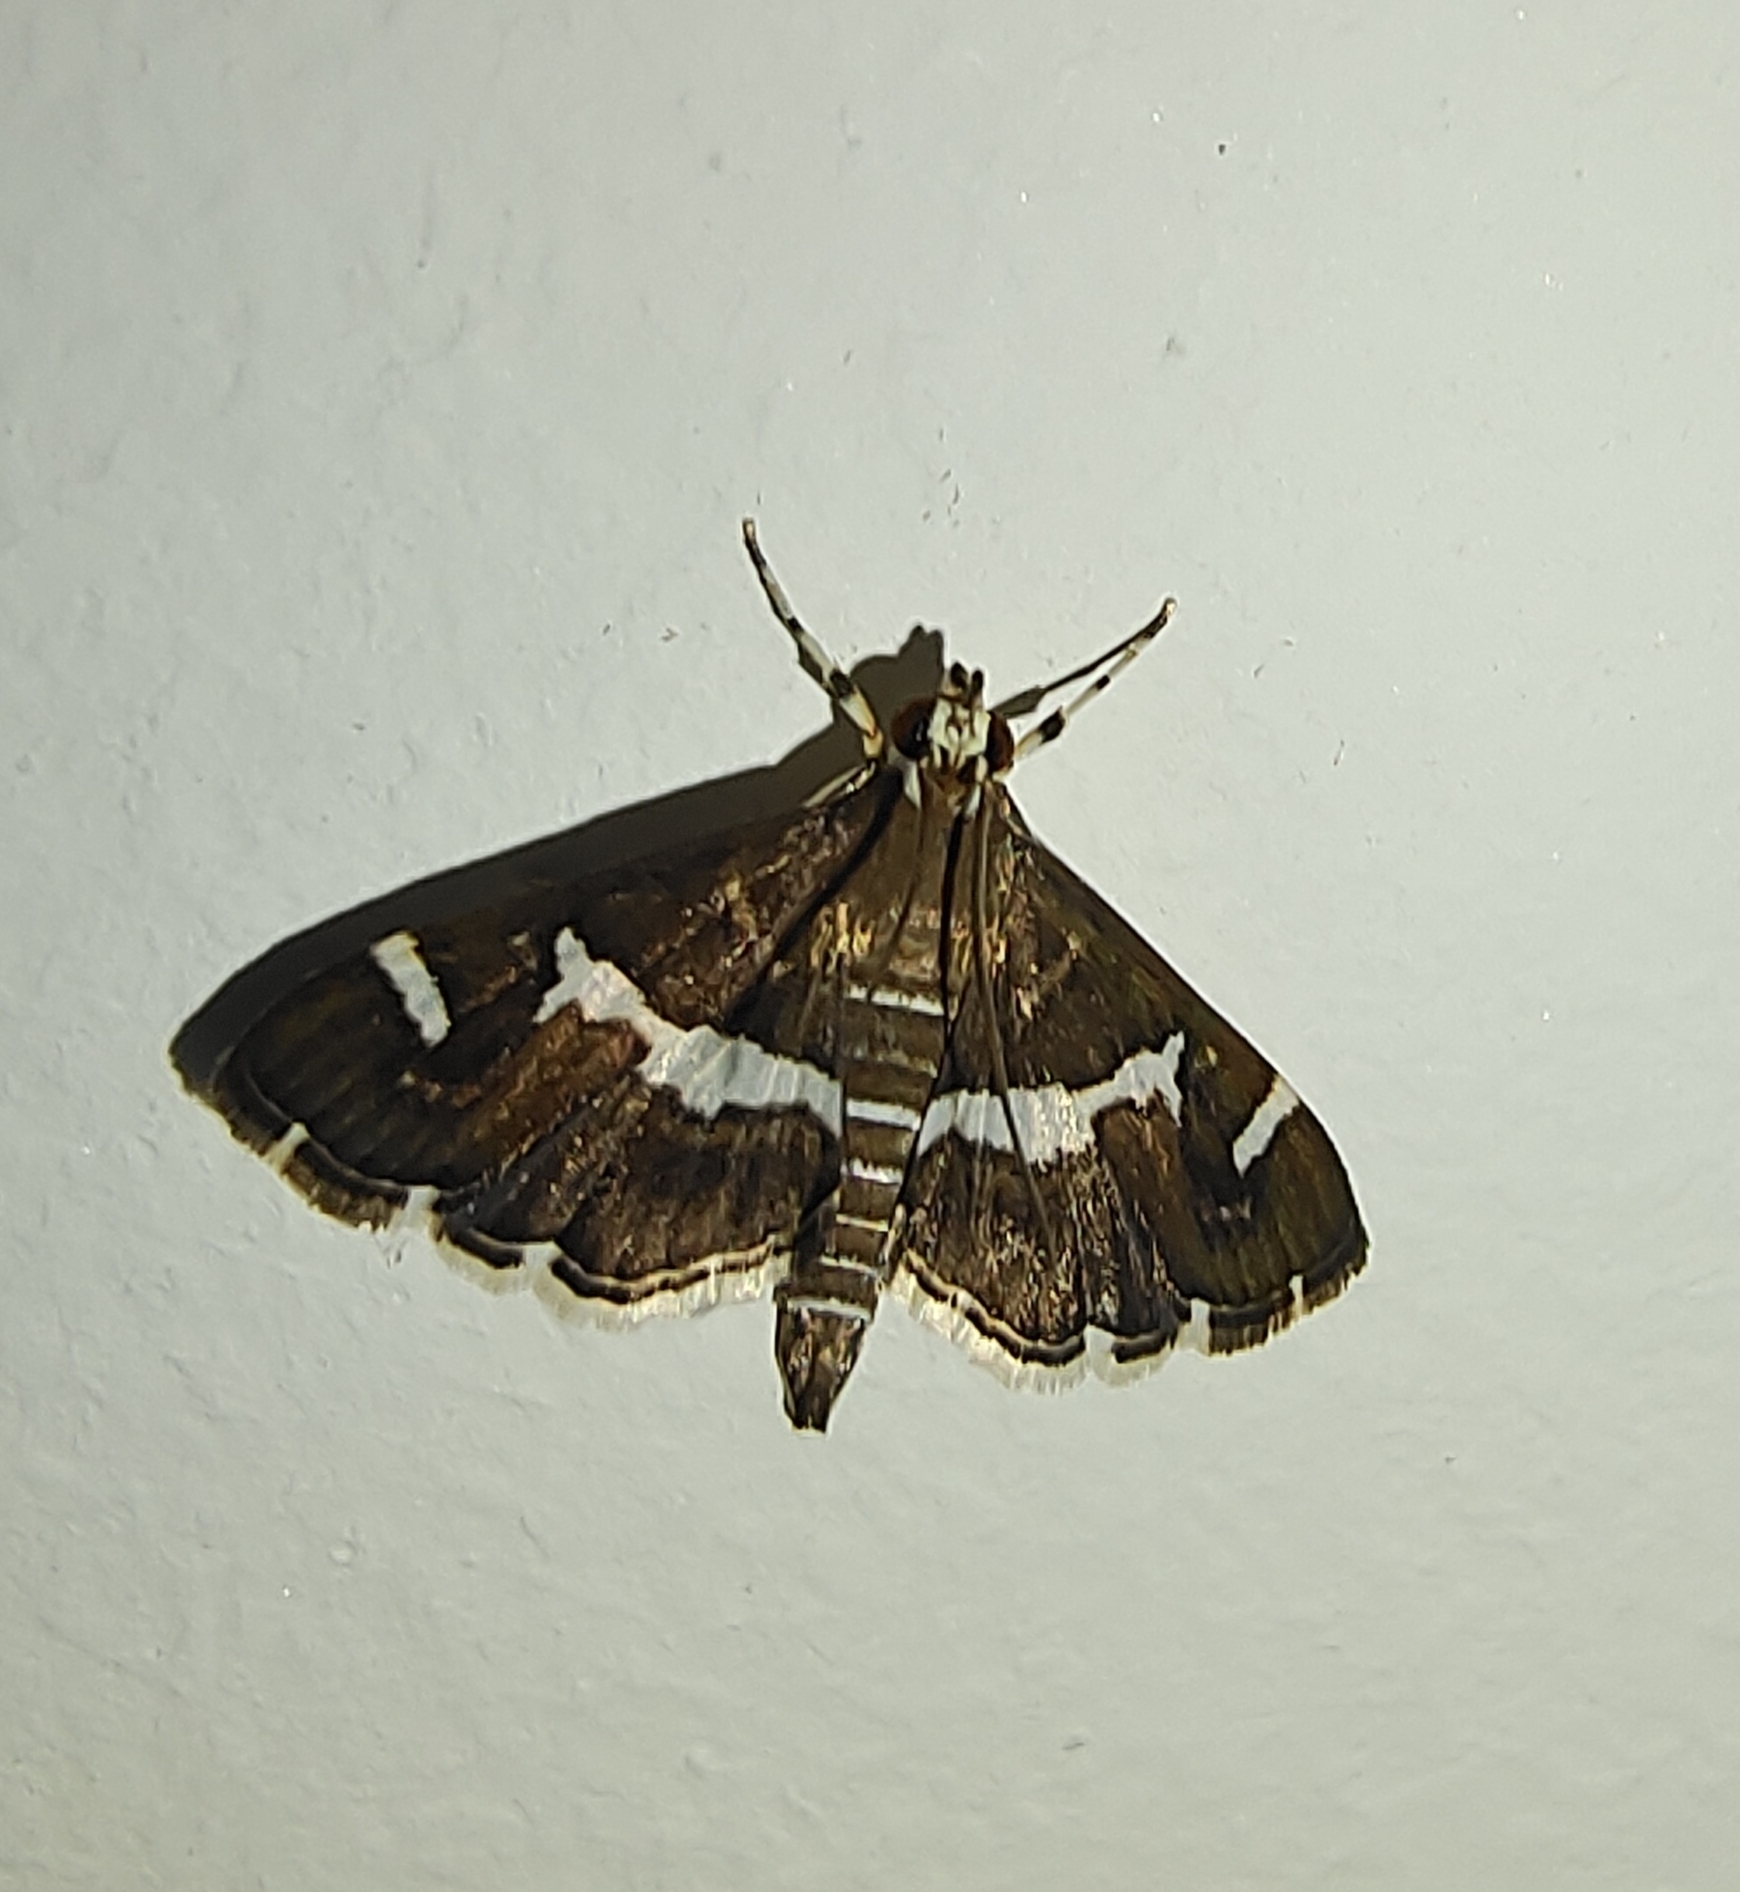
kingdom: Animalia
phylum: Arthropoda
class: Insecta
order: Lepidoptera
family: Crambidae
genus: Spoladea
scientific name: Spoladea recurvalis
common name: Beet webworm moth
